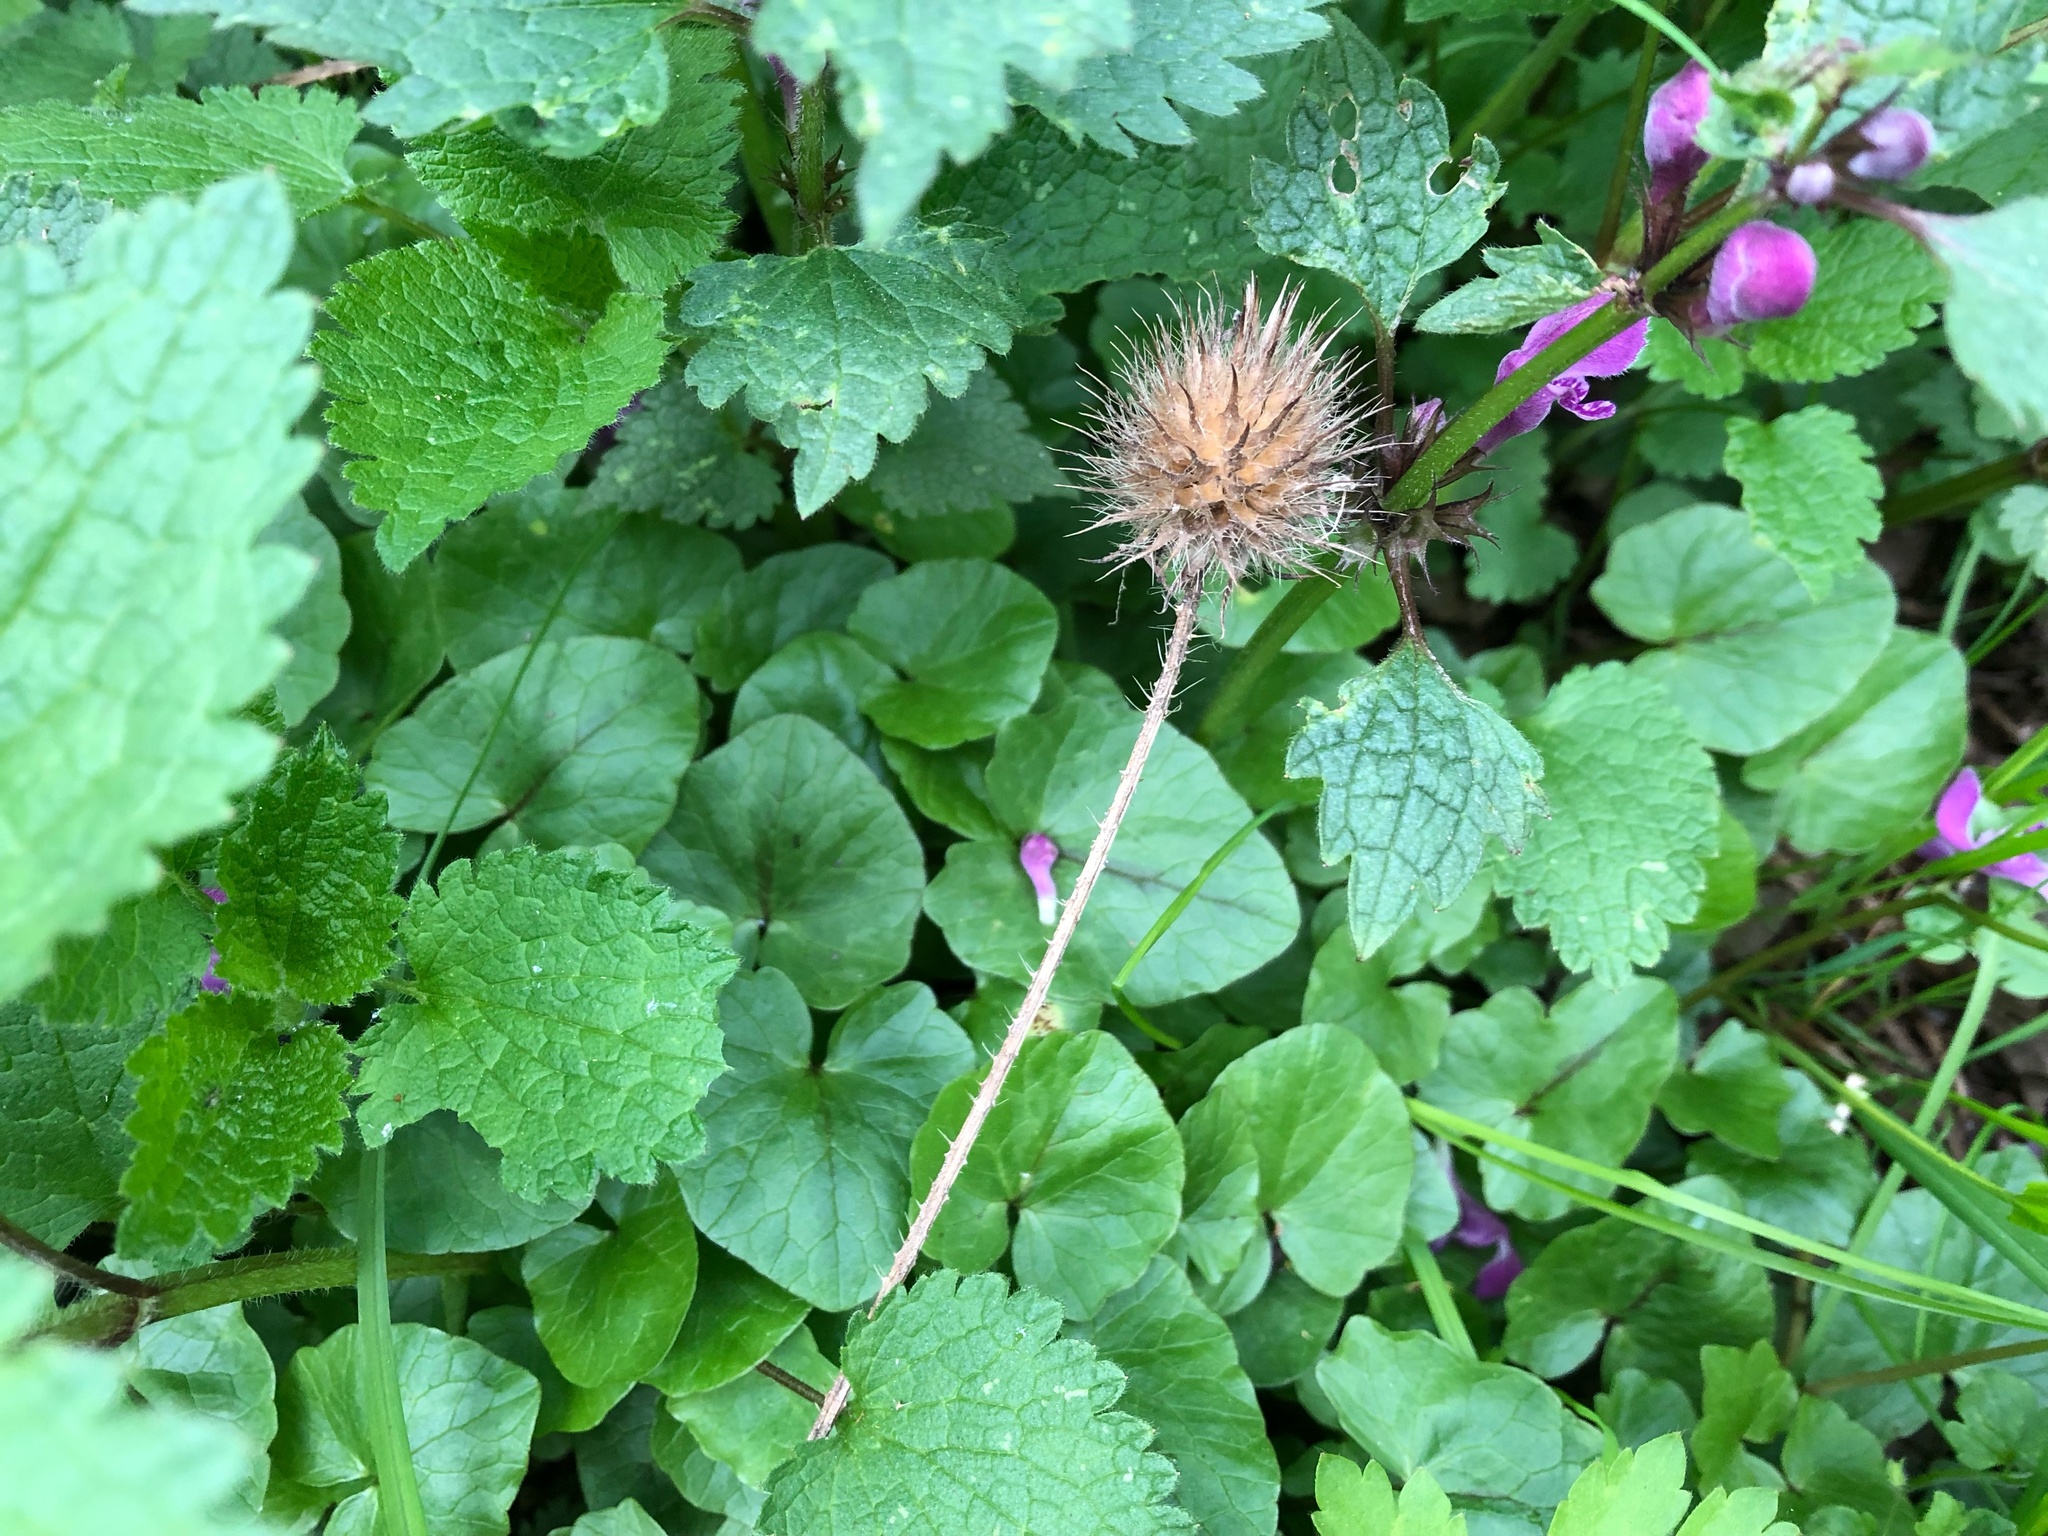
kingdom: Plantae
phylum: Tracheophyta
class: Magnoliopsida
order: Dipsacales
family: Caprifoliaceae
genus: Dipsacus
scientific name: Dipsacus strigosus
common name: Yellow-flowered teasel
